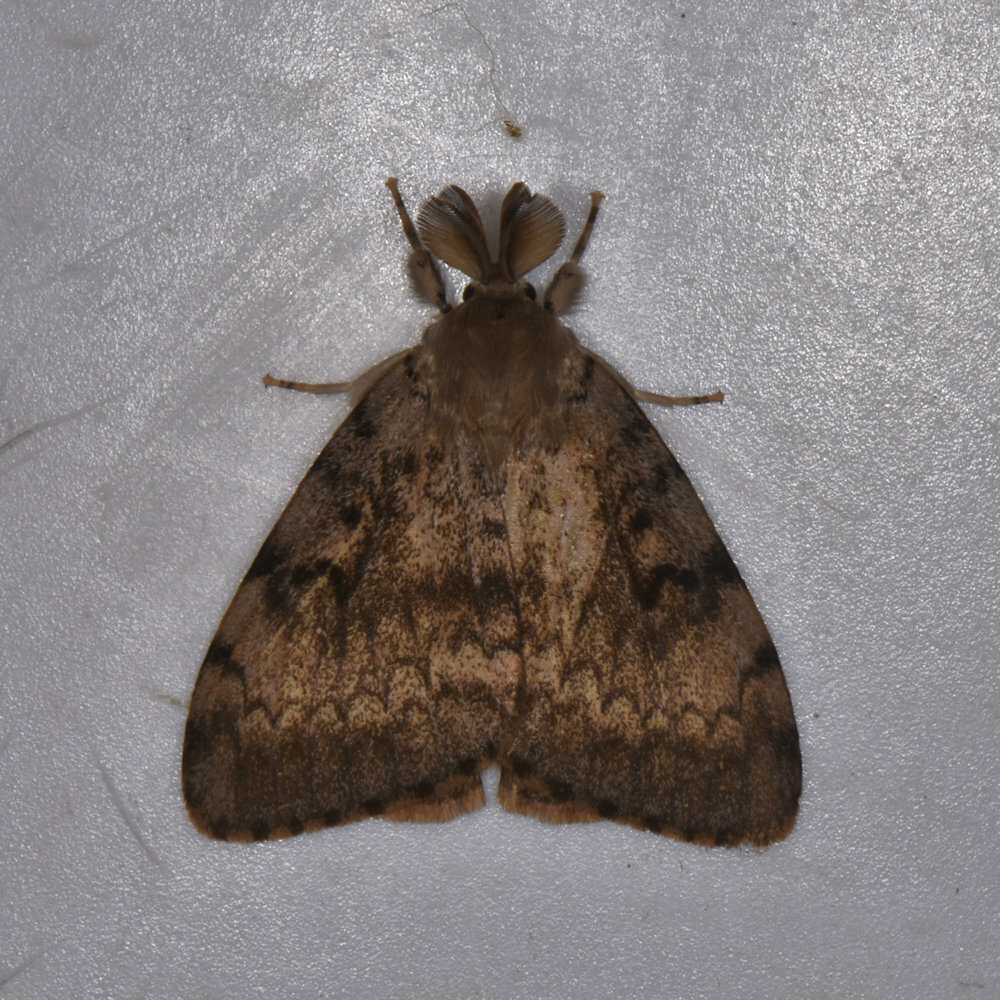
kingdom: Animalia
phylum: Arthropoda
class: Insecta
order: Lepidoptera
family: Erebidae
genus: Lymantria
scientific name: Lymantria dispar
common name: Gypsy moth
